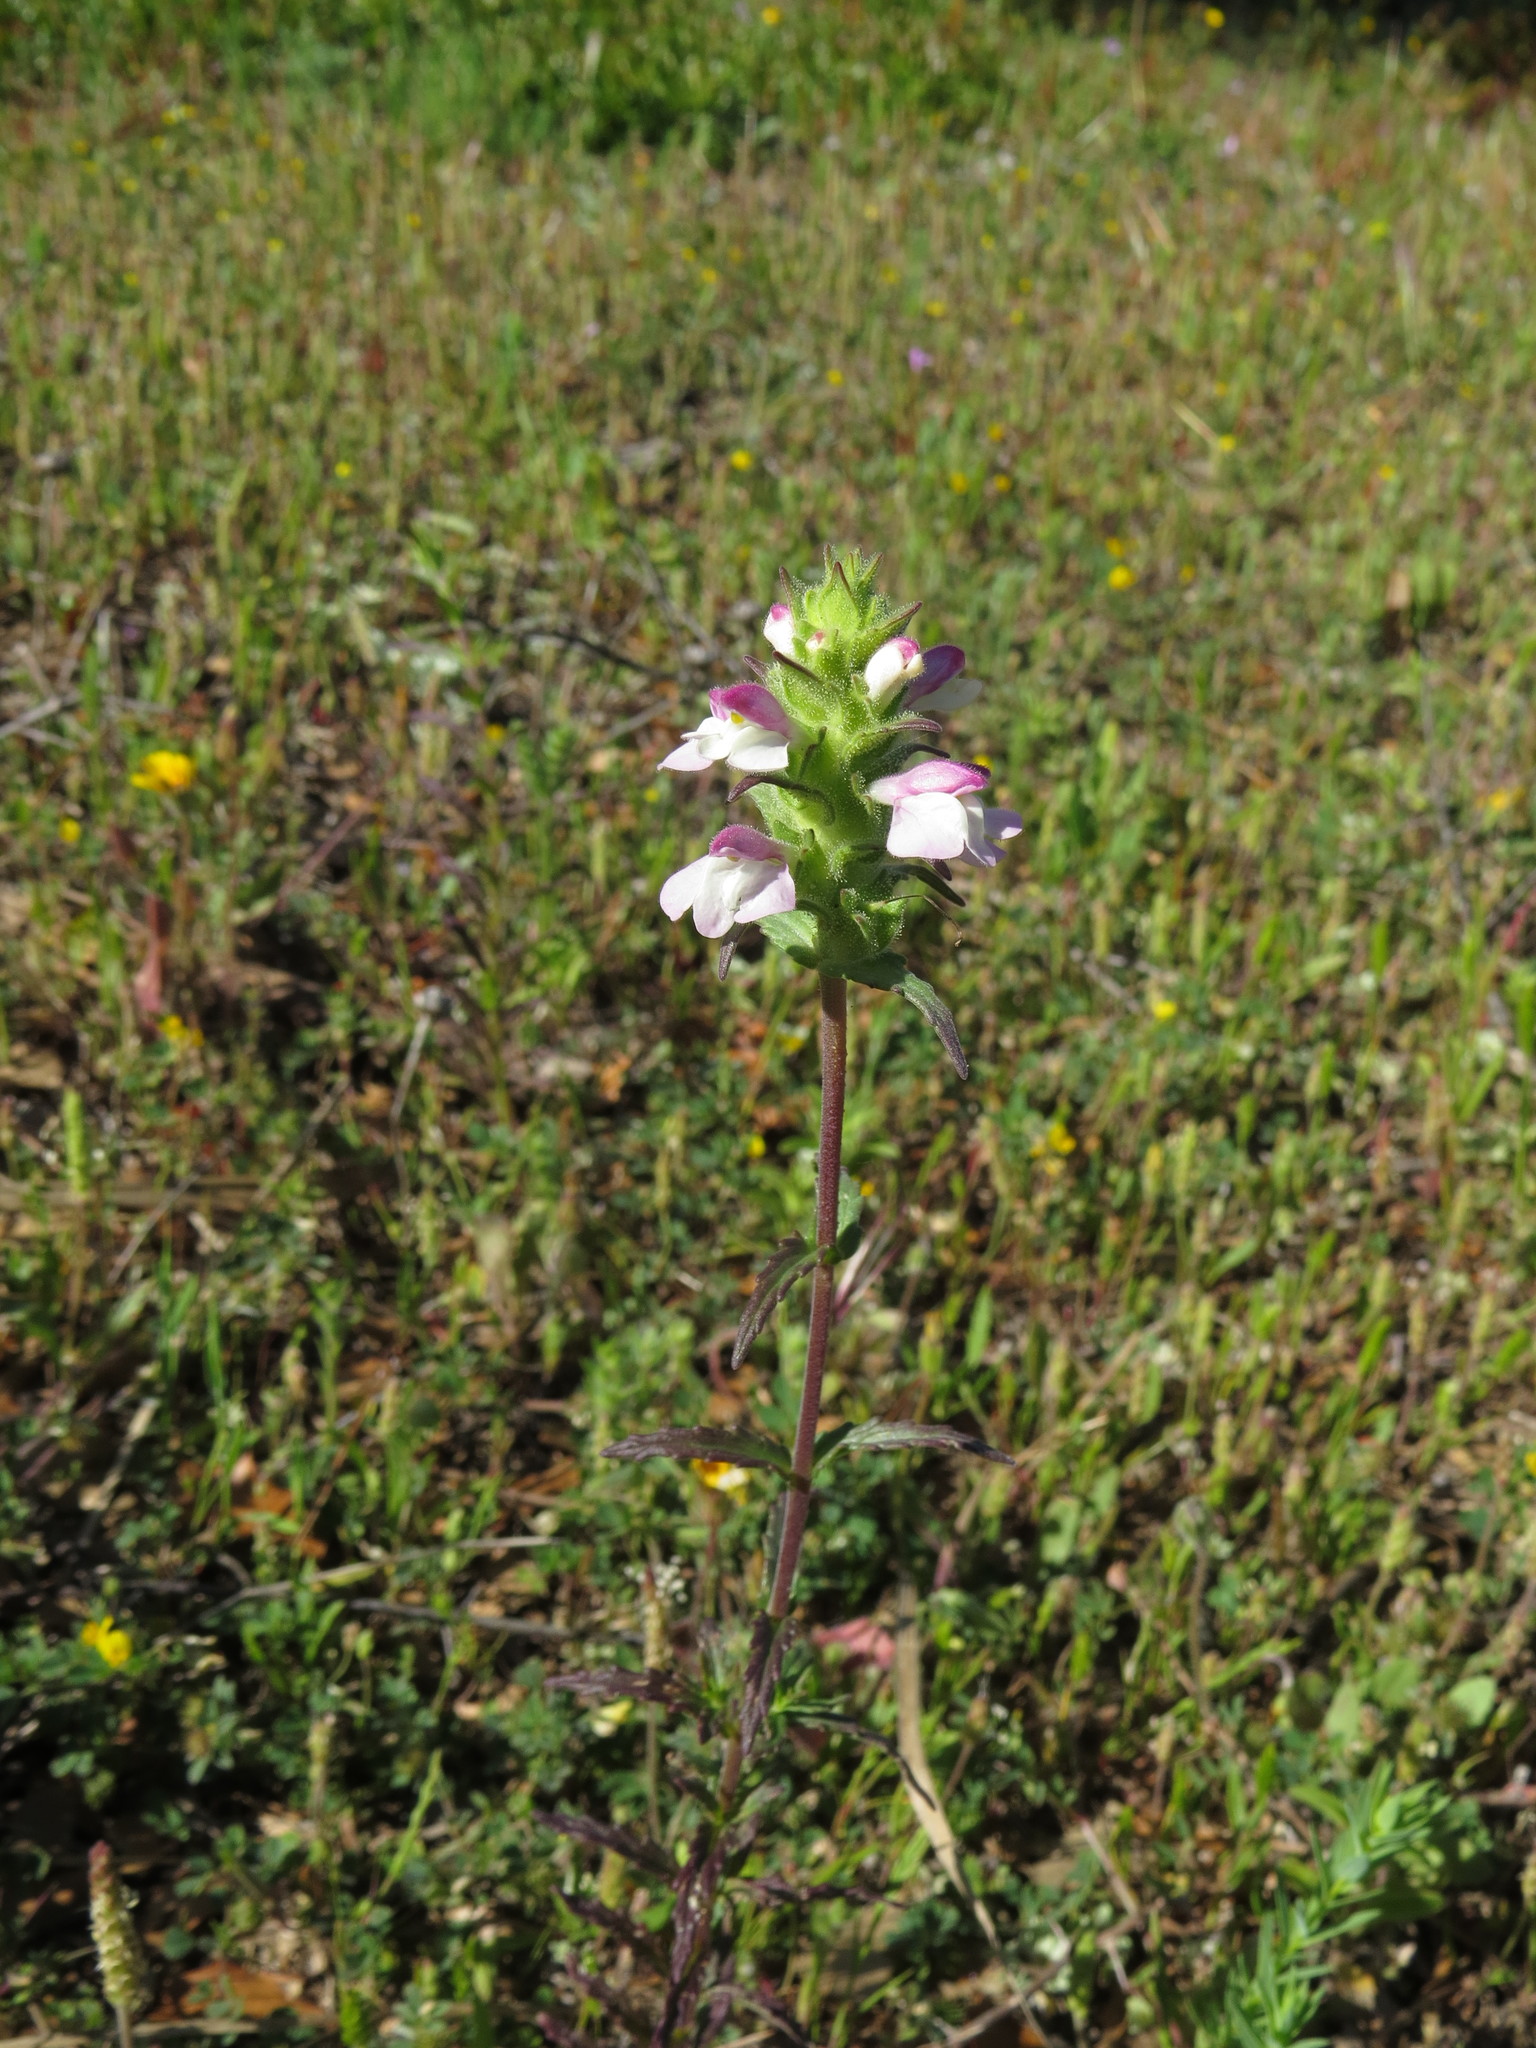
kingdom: Plantae
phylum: Tracheophyta
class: Magnoliopsida
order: Lamiales
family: Orobanchaceae
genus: Bellardia
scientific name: Bellardia trixago
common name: Mediterranean lineseed
